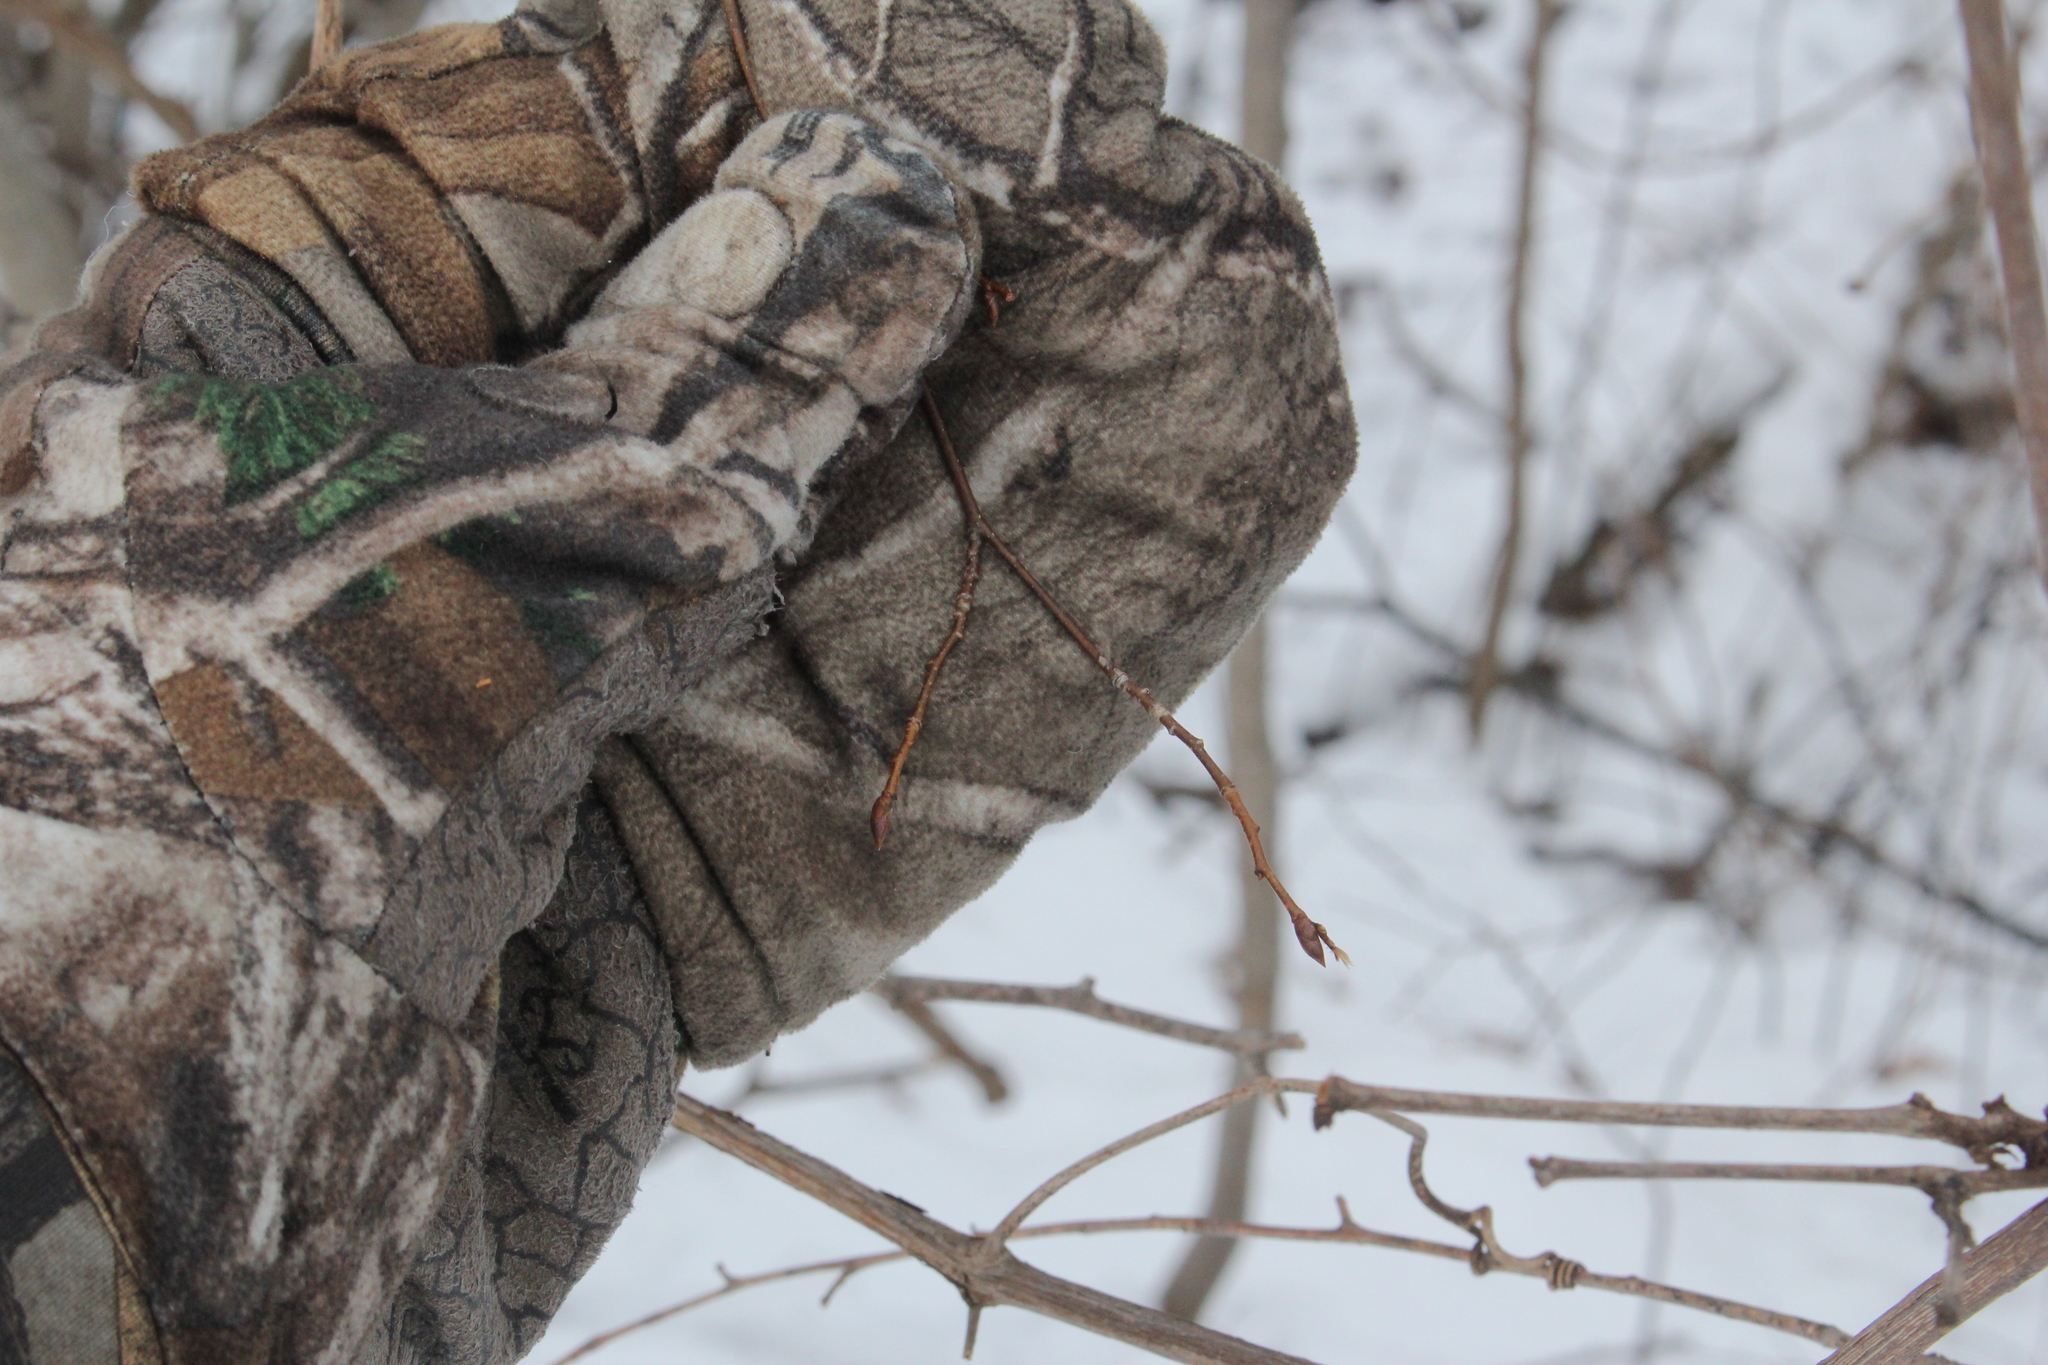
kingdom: Plantae
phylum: Tracheophyta
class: Magnoliopsida
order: Fagales
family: Betulaceae
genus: Ostrya
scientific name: Ostrya virginiana
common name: Ironwood
